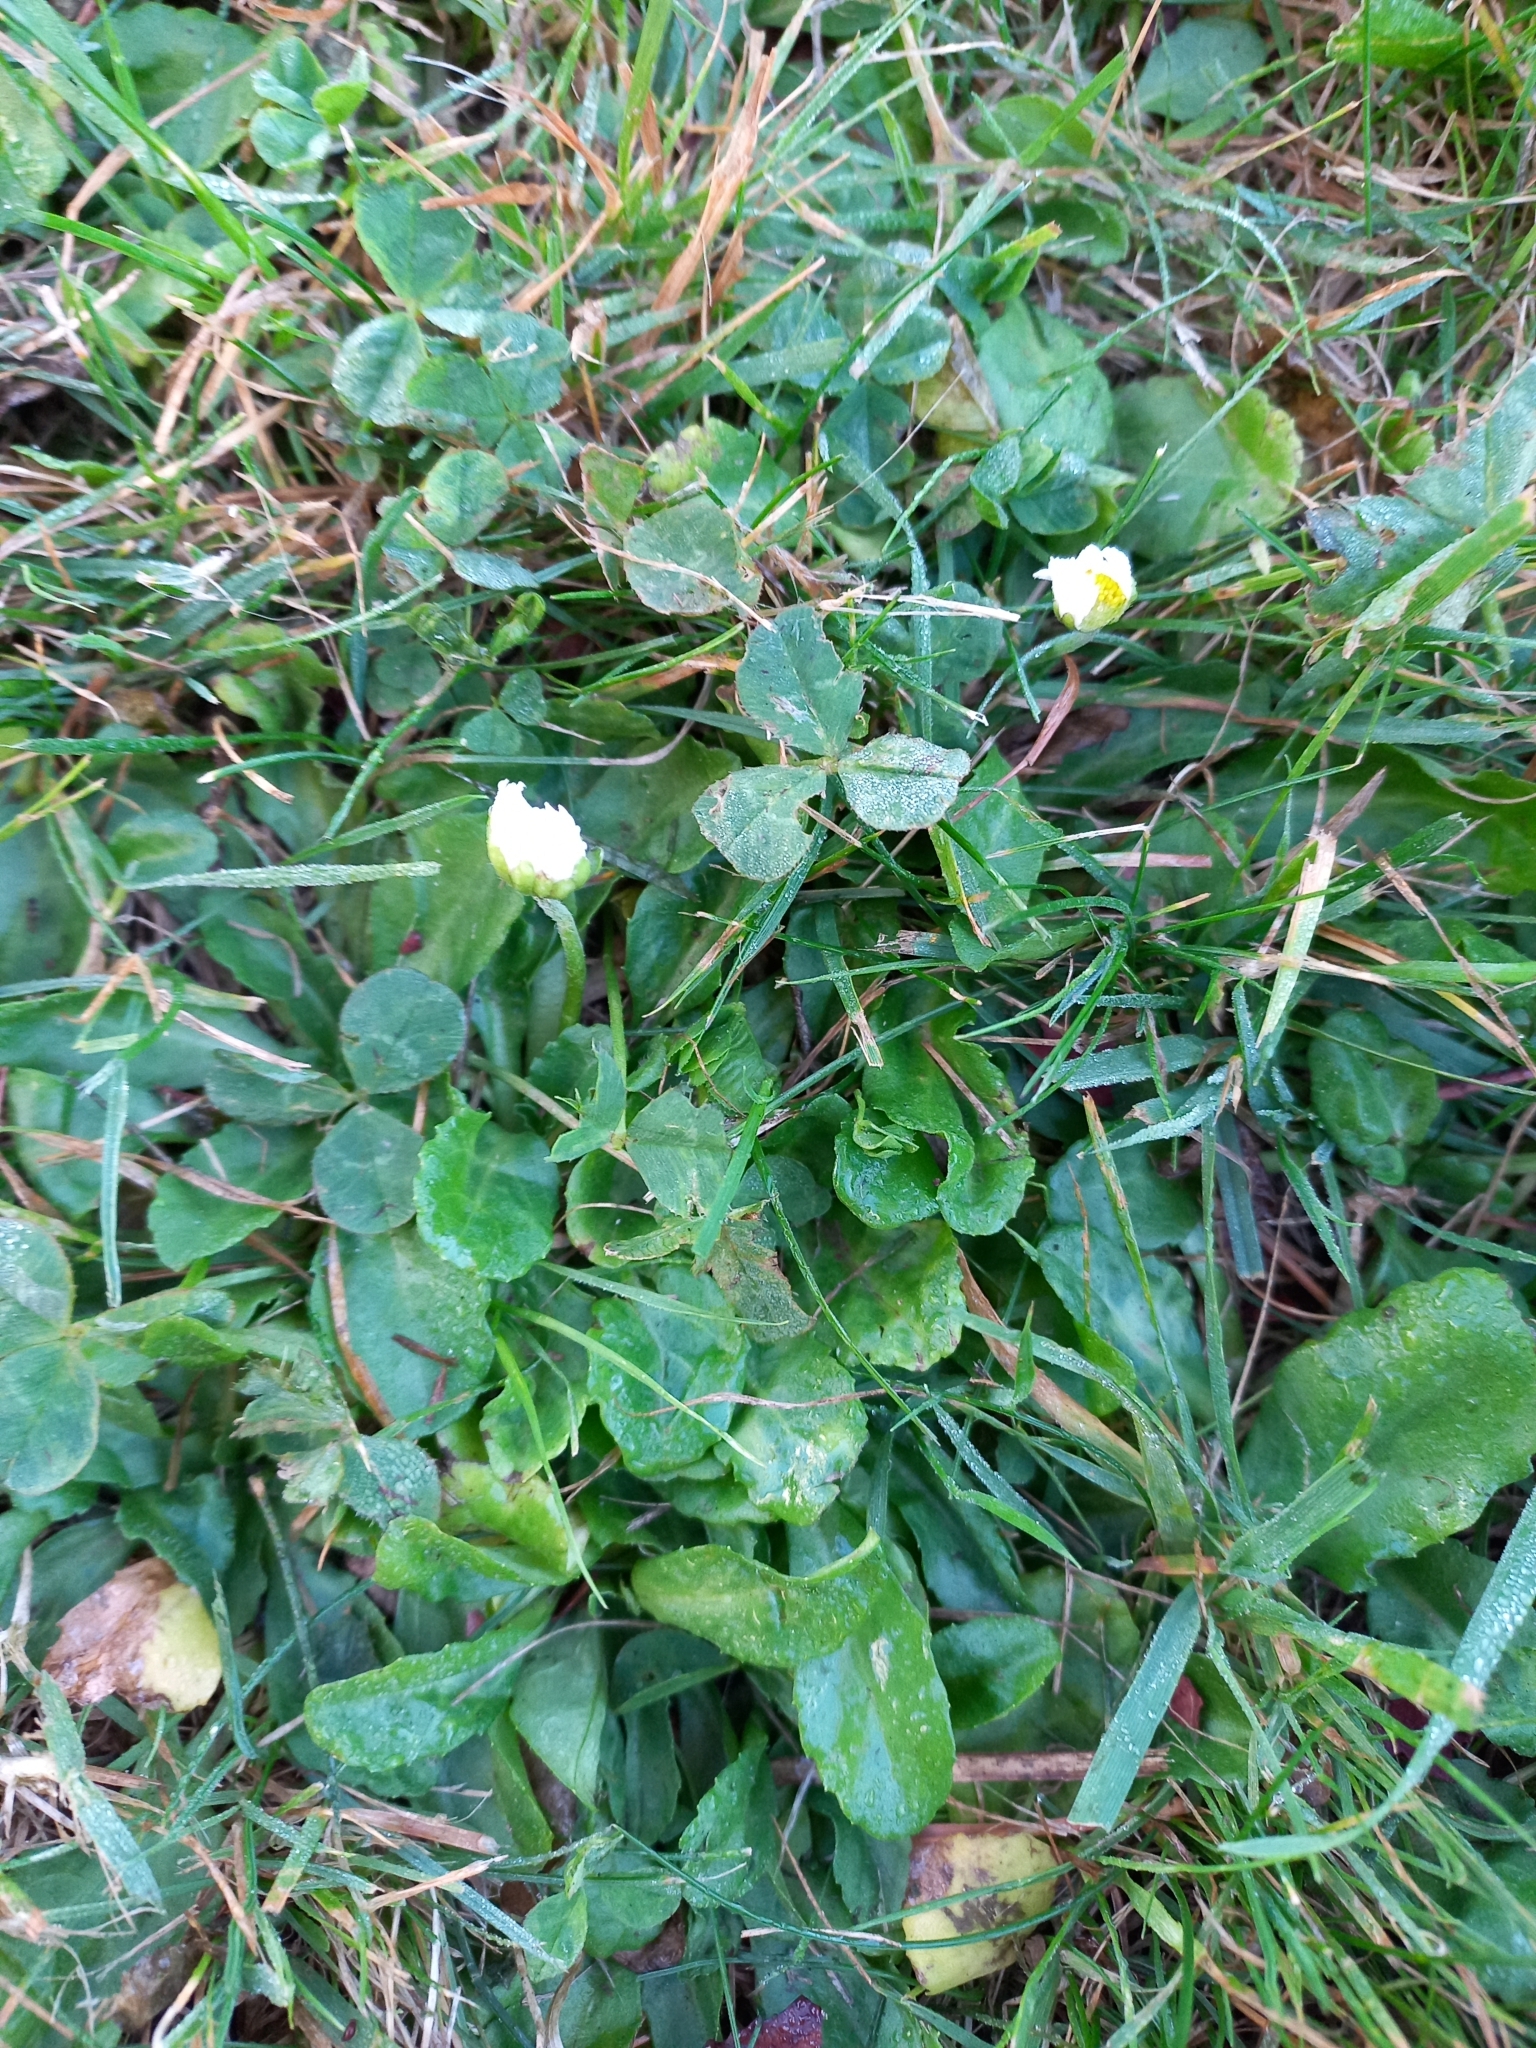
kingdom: Plantae
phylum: Tracheophyta
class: Magnoliopsida
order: Asterales
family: Asteraceae
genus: Bellis
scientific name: Bellis perennis
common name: Lawndaisy
